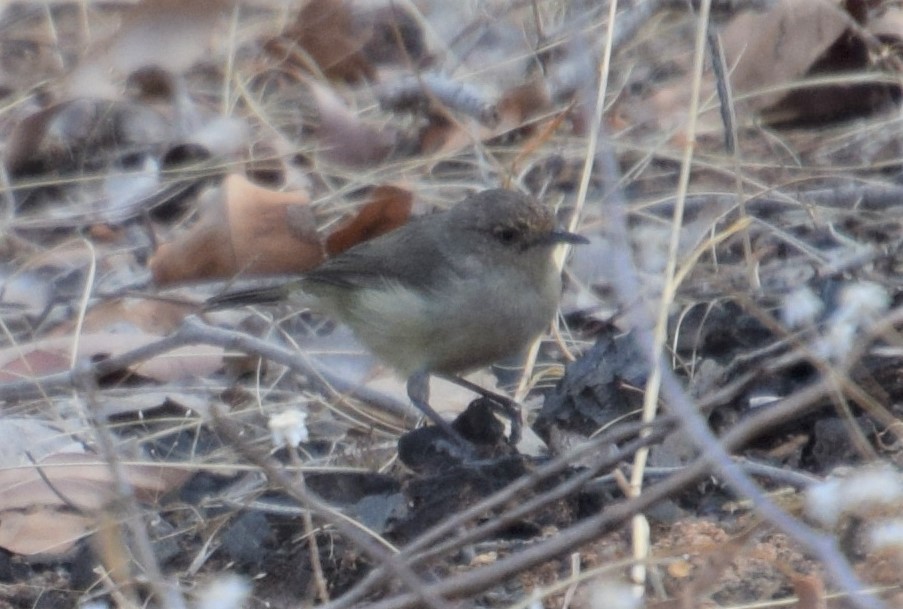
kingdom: Animalia
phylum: Chordata
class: Aves
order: Passeriformes
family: Acanthizidae
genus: Acanthiza
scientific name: Acanthiza inornata
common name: Western thornbill
